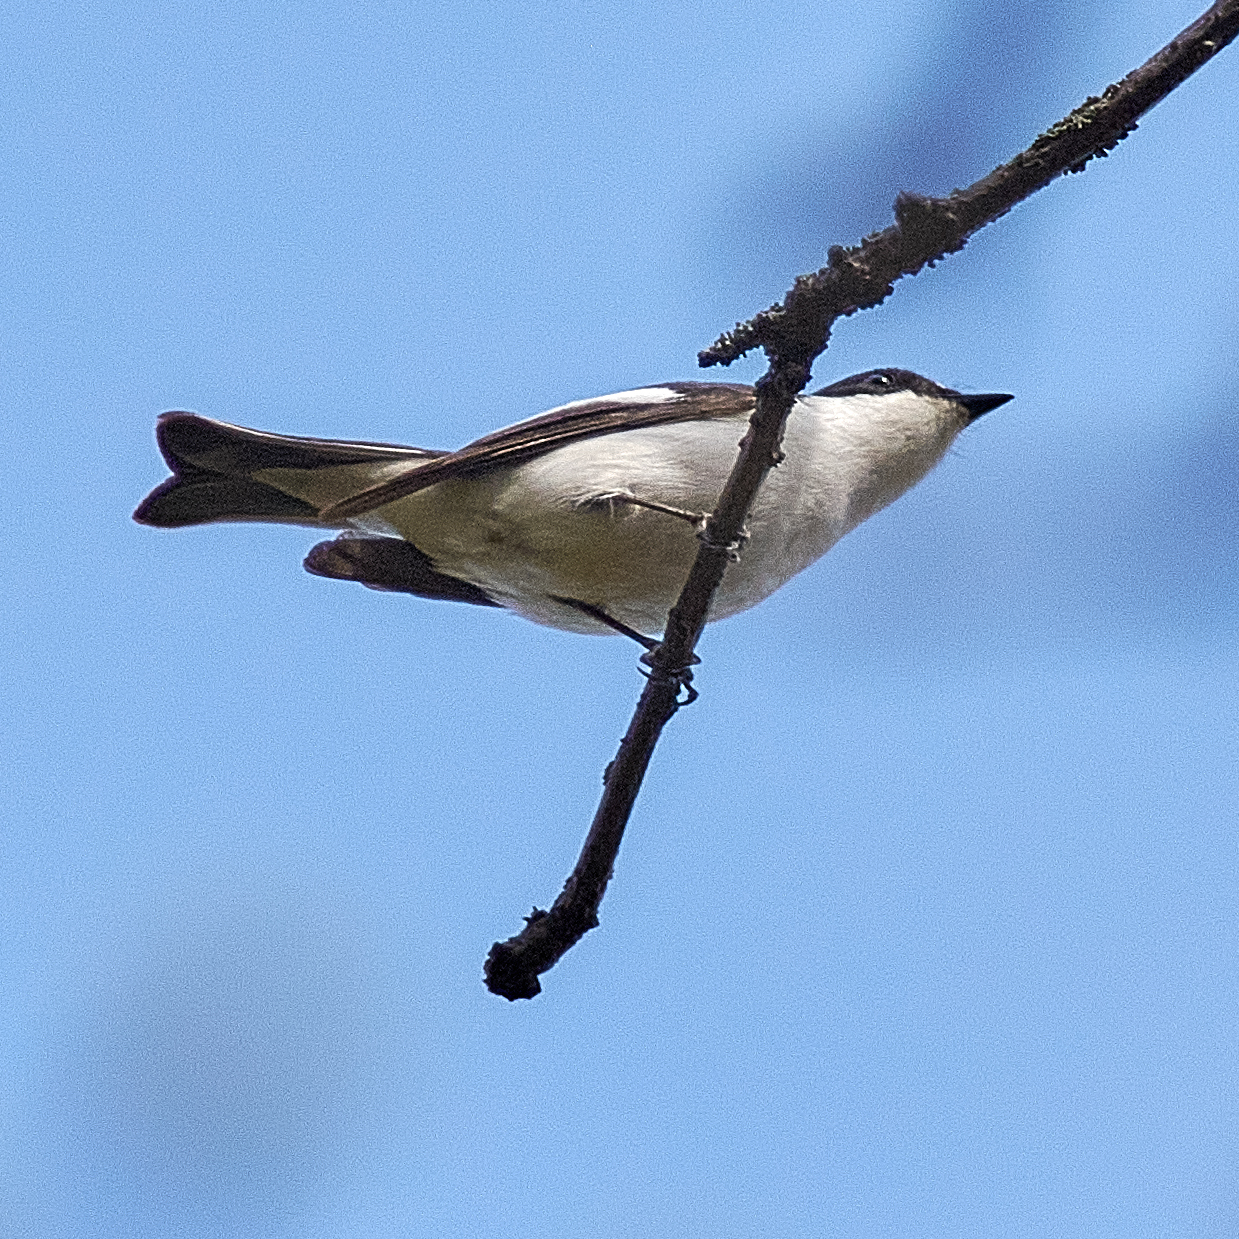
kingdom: Animalia
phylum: Chordata
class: Aves
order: Passeriformes
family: Muscicapidae
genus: Ficedula
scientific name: Ficedula hypoleuca
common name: European pied flycatcher
